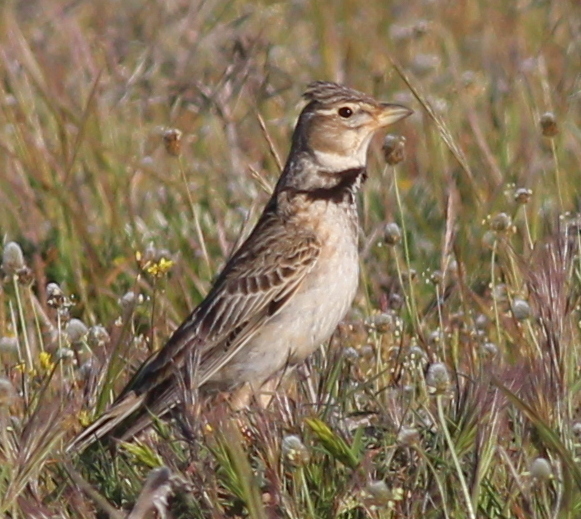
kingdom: Animalia
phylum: Chordata
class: Aves
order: Passeriformes
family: Alaudidae
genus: Melanocorypha
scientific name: Melanocorypha calandra
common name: Calandra lark
